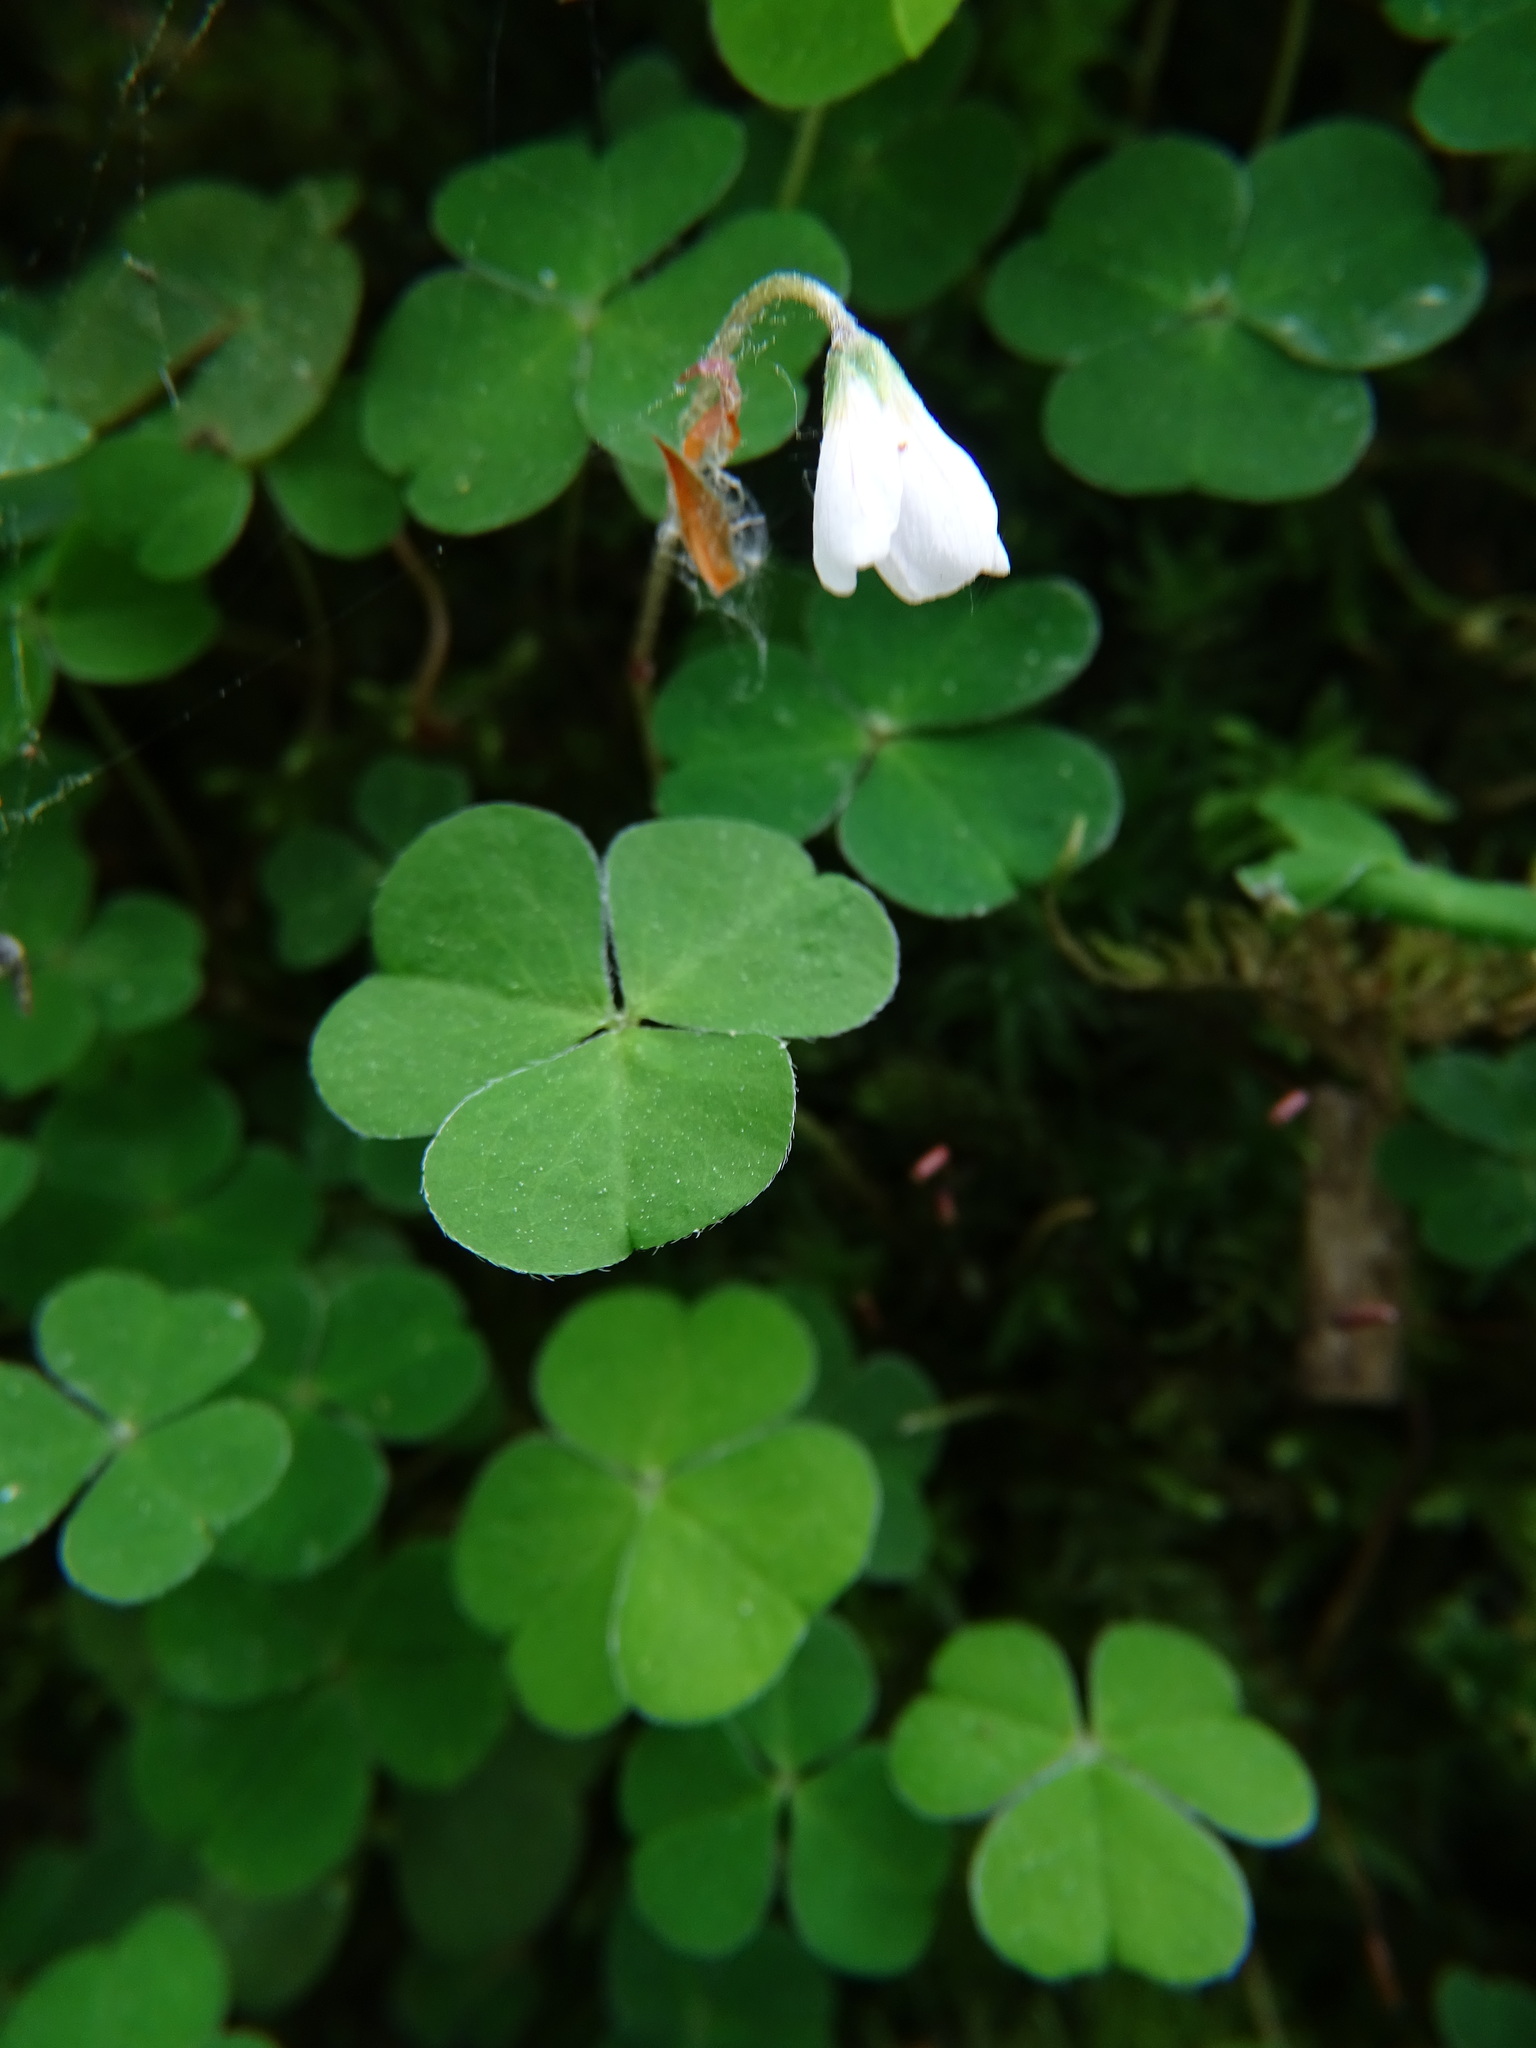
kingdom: Plantae
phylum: Tracheophyta
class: Magnoliopsida
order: Oxalidales
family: Oxalidaceae
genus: Oxalis
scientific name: Oxalis acetosella
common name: Wood-sorrel
